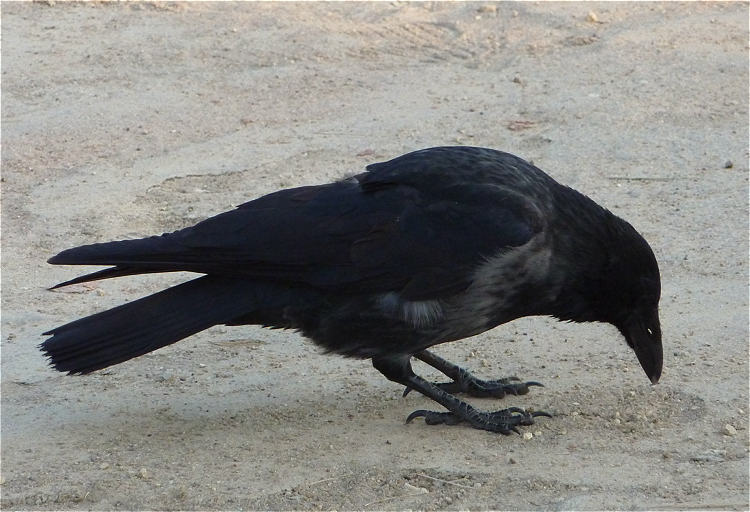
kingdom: Animalia
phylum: Chordata
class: Aves
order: Passeriformes
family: Corvidae
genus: Corvus
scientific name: Corvus
